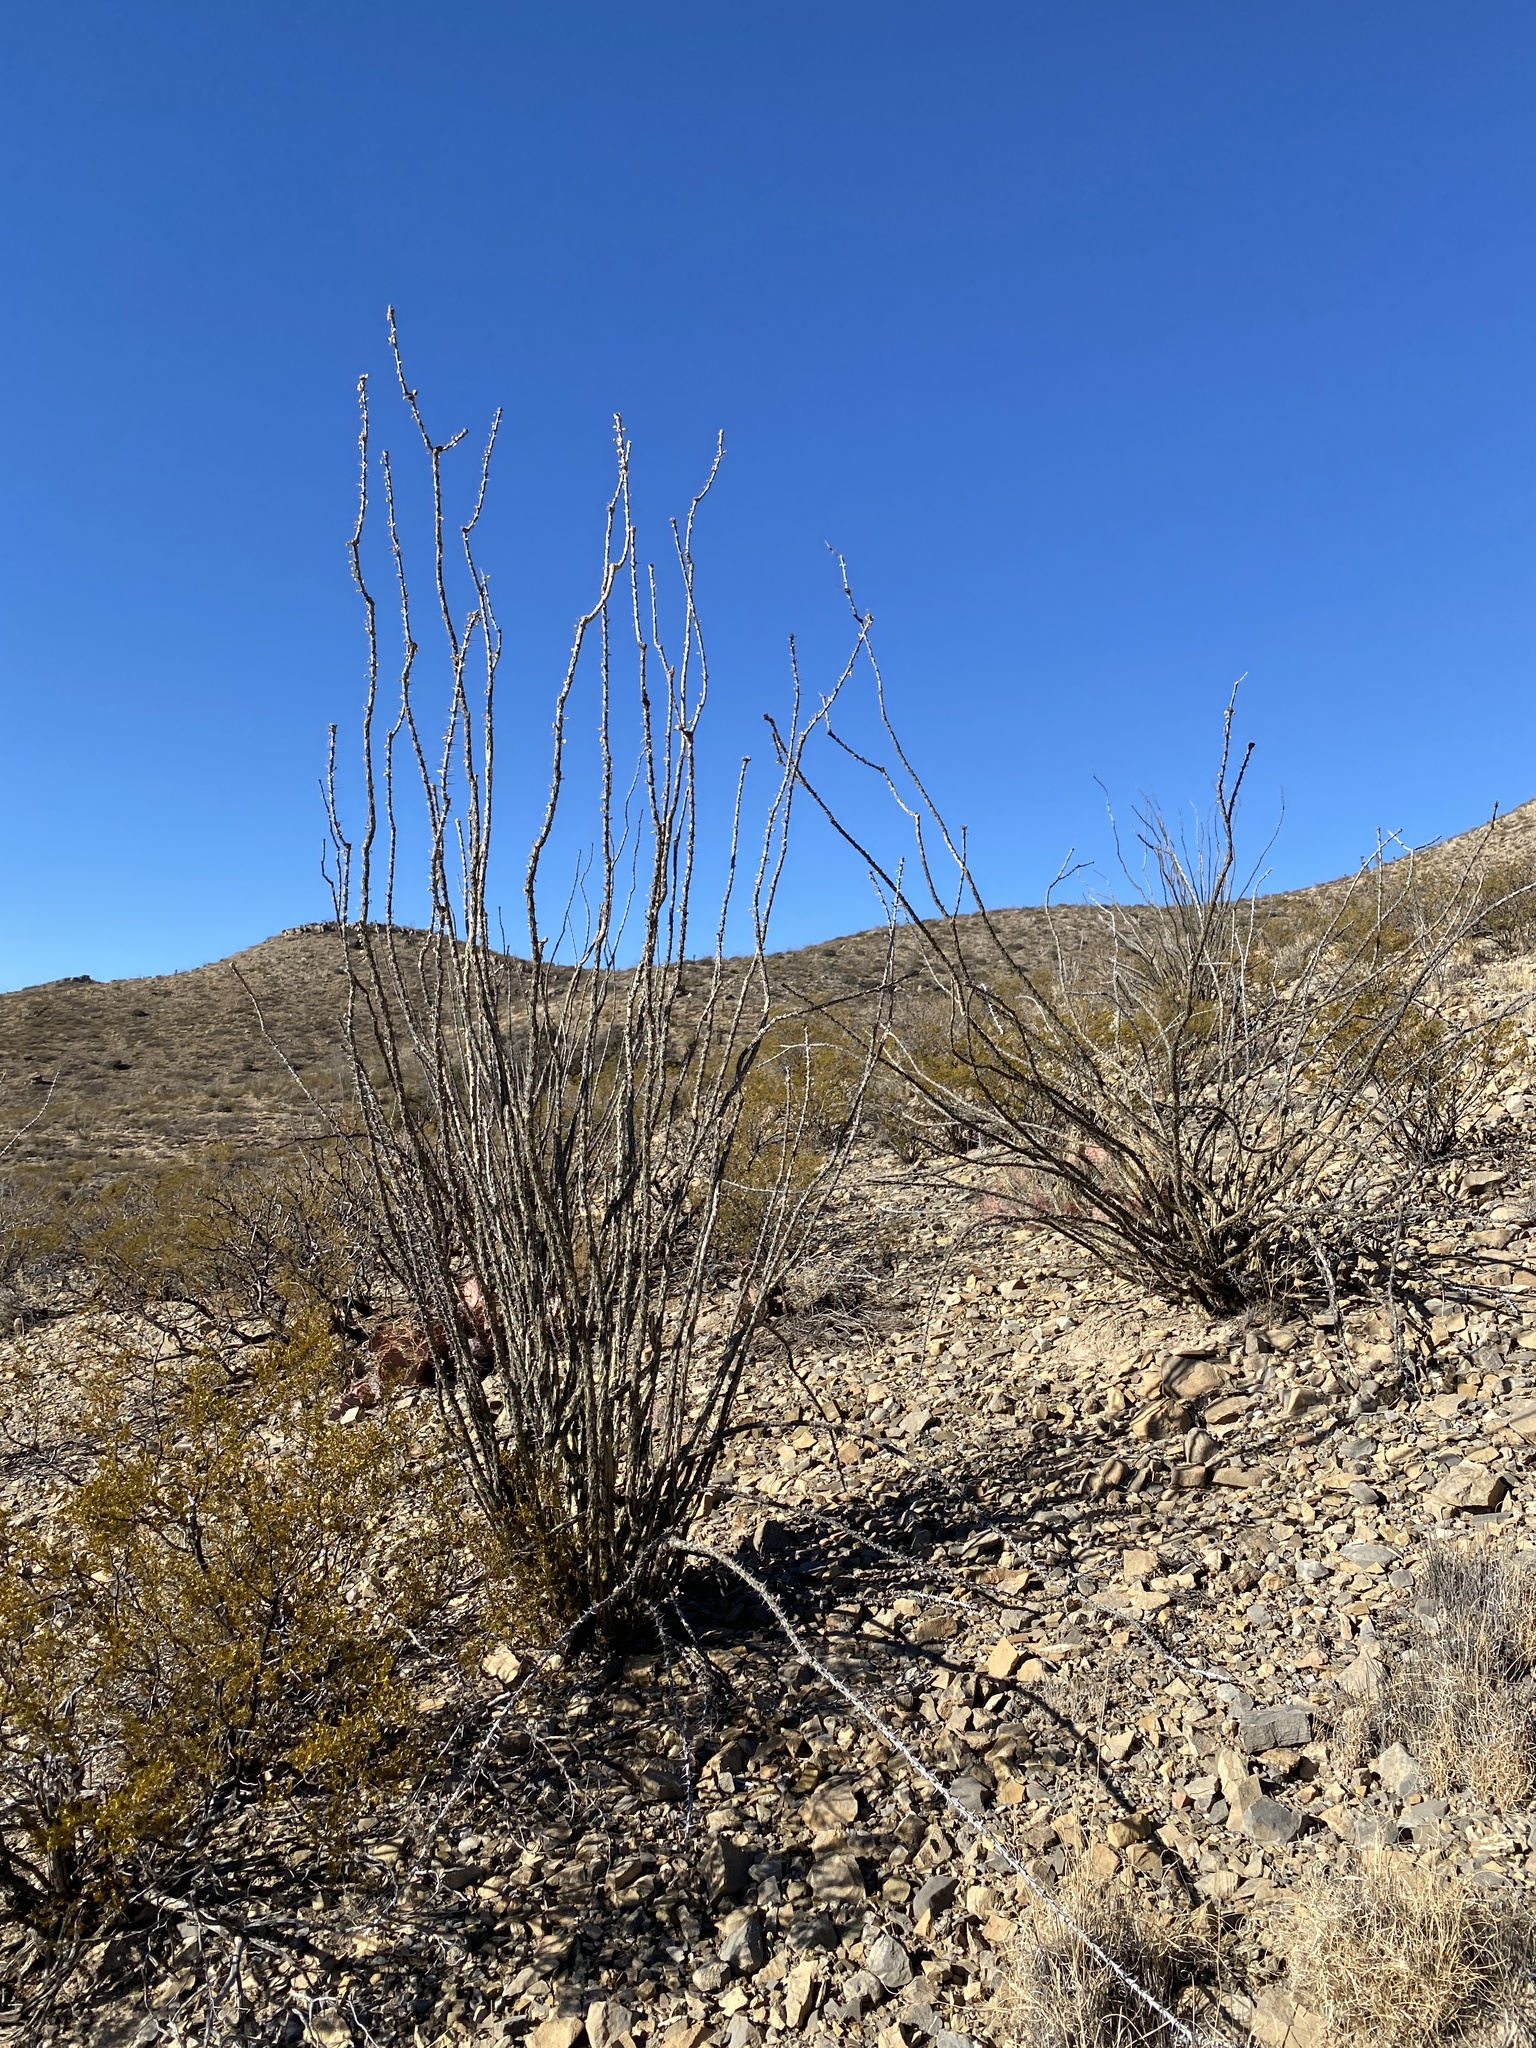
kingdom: Plantae
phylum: Tracheophyta
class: Magnoliopsida
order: Ericales
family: Fouquieriaceae
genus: Fouquieria
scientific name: Fouquieria splendens
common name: Vine-cactus
